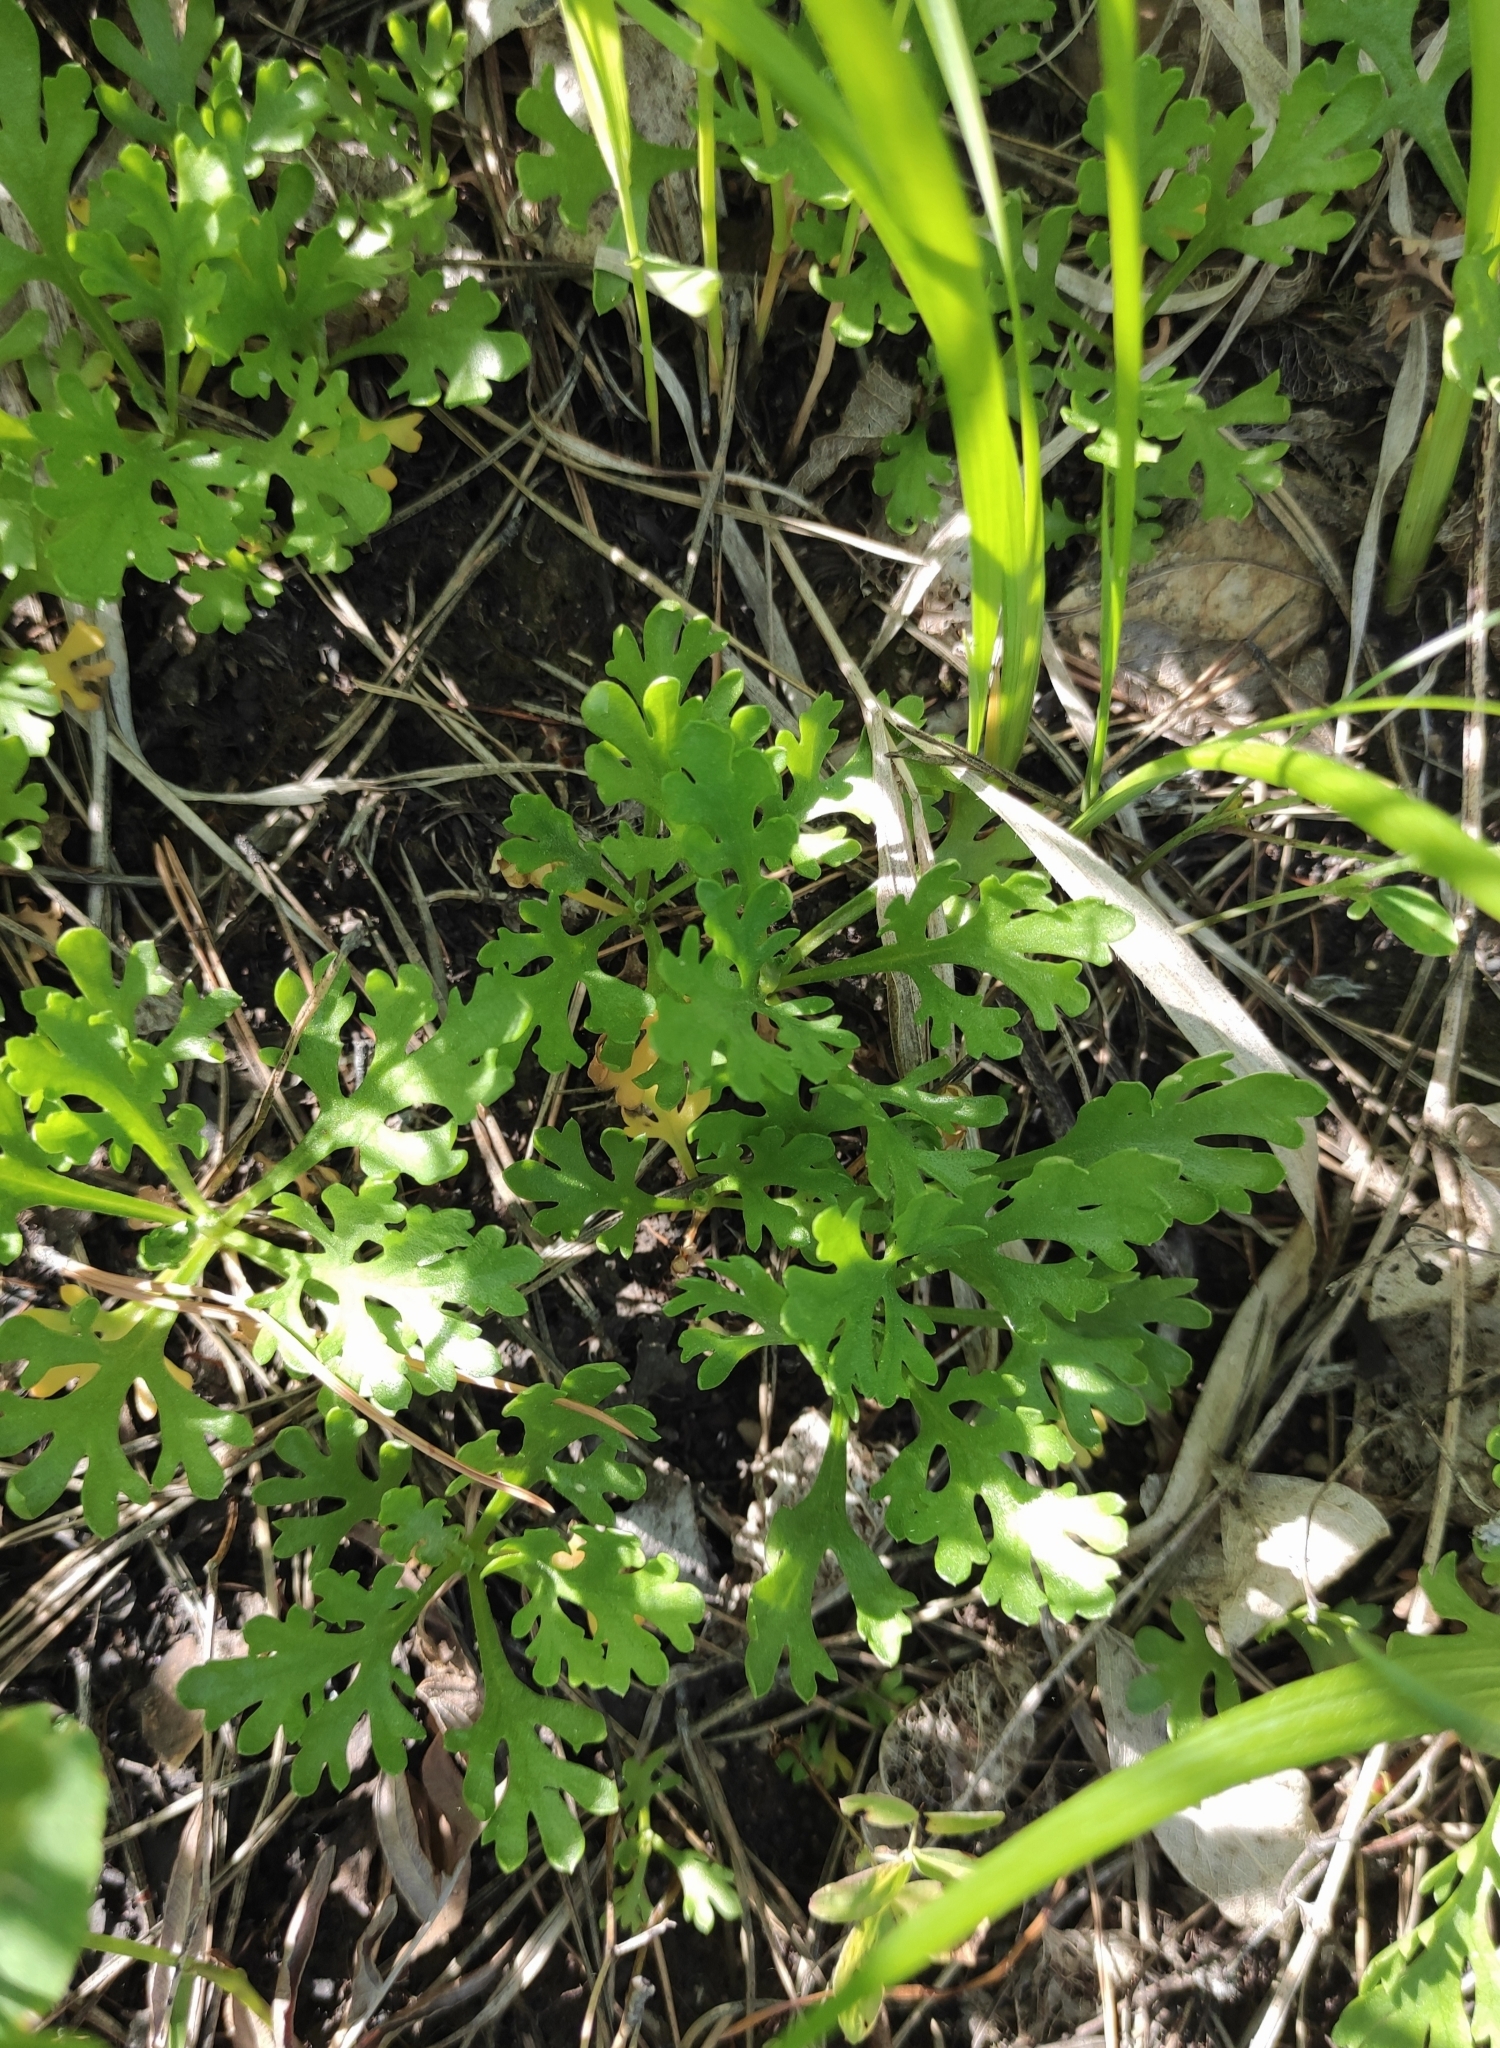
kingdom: Plantae
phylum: Tracheophyta
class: Magnoliopsida
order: Asterales
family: Asteraceae
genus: Chrysanthemum
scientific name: Chrysanthemum zawadzkii
